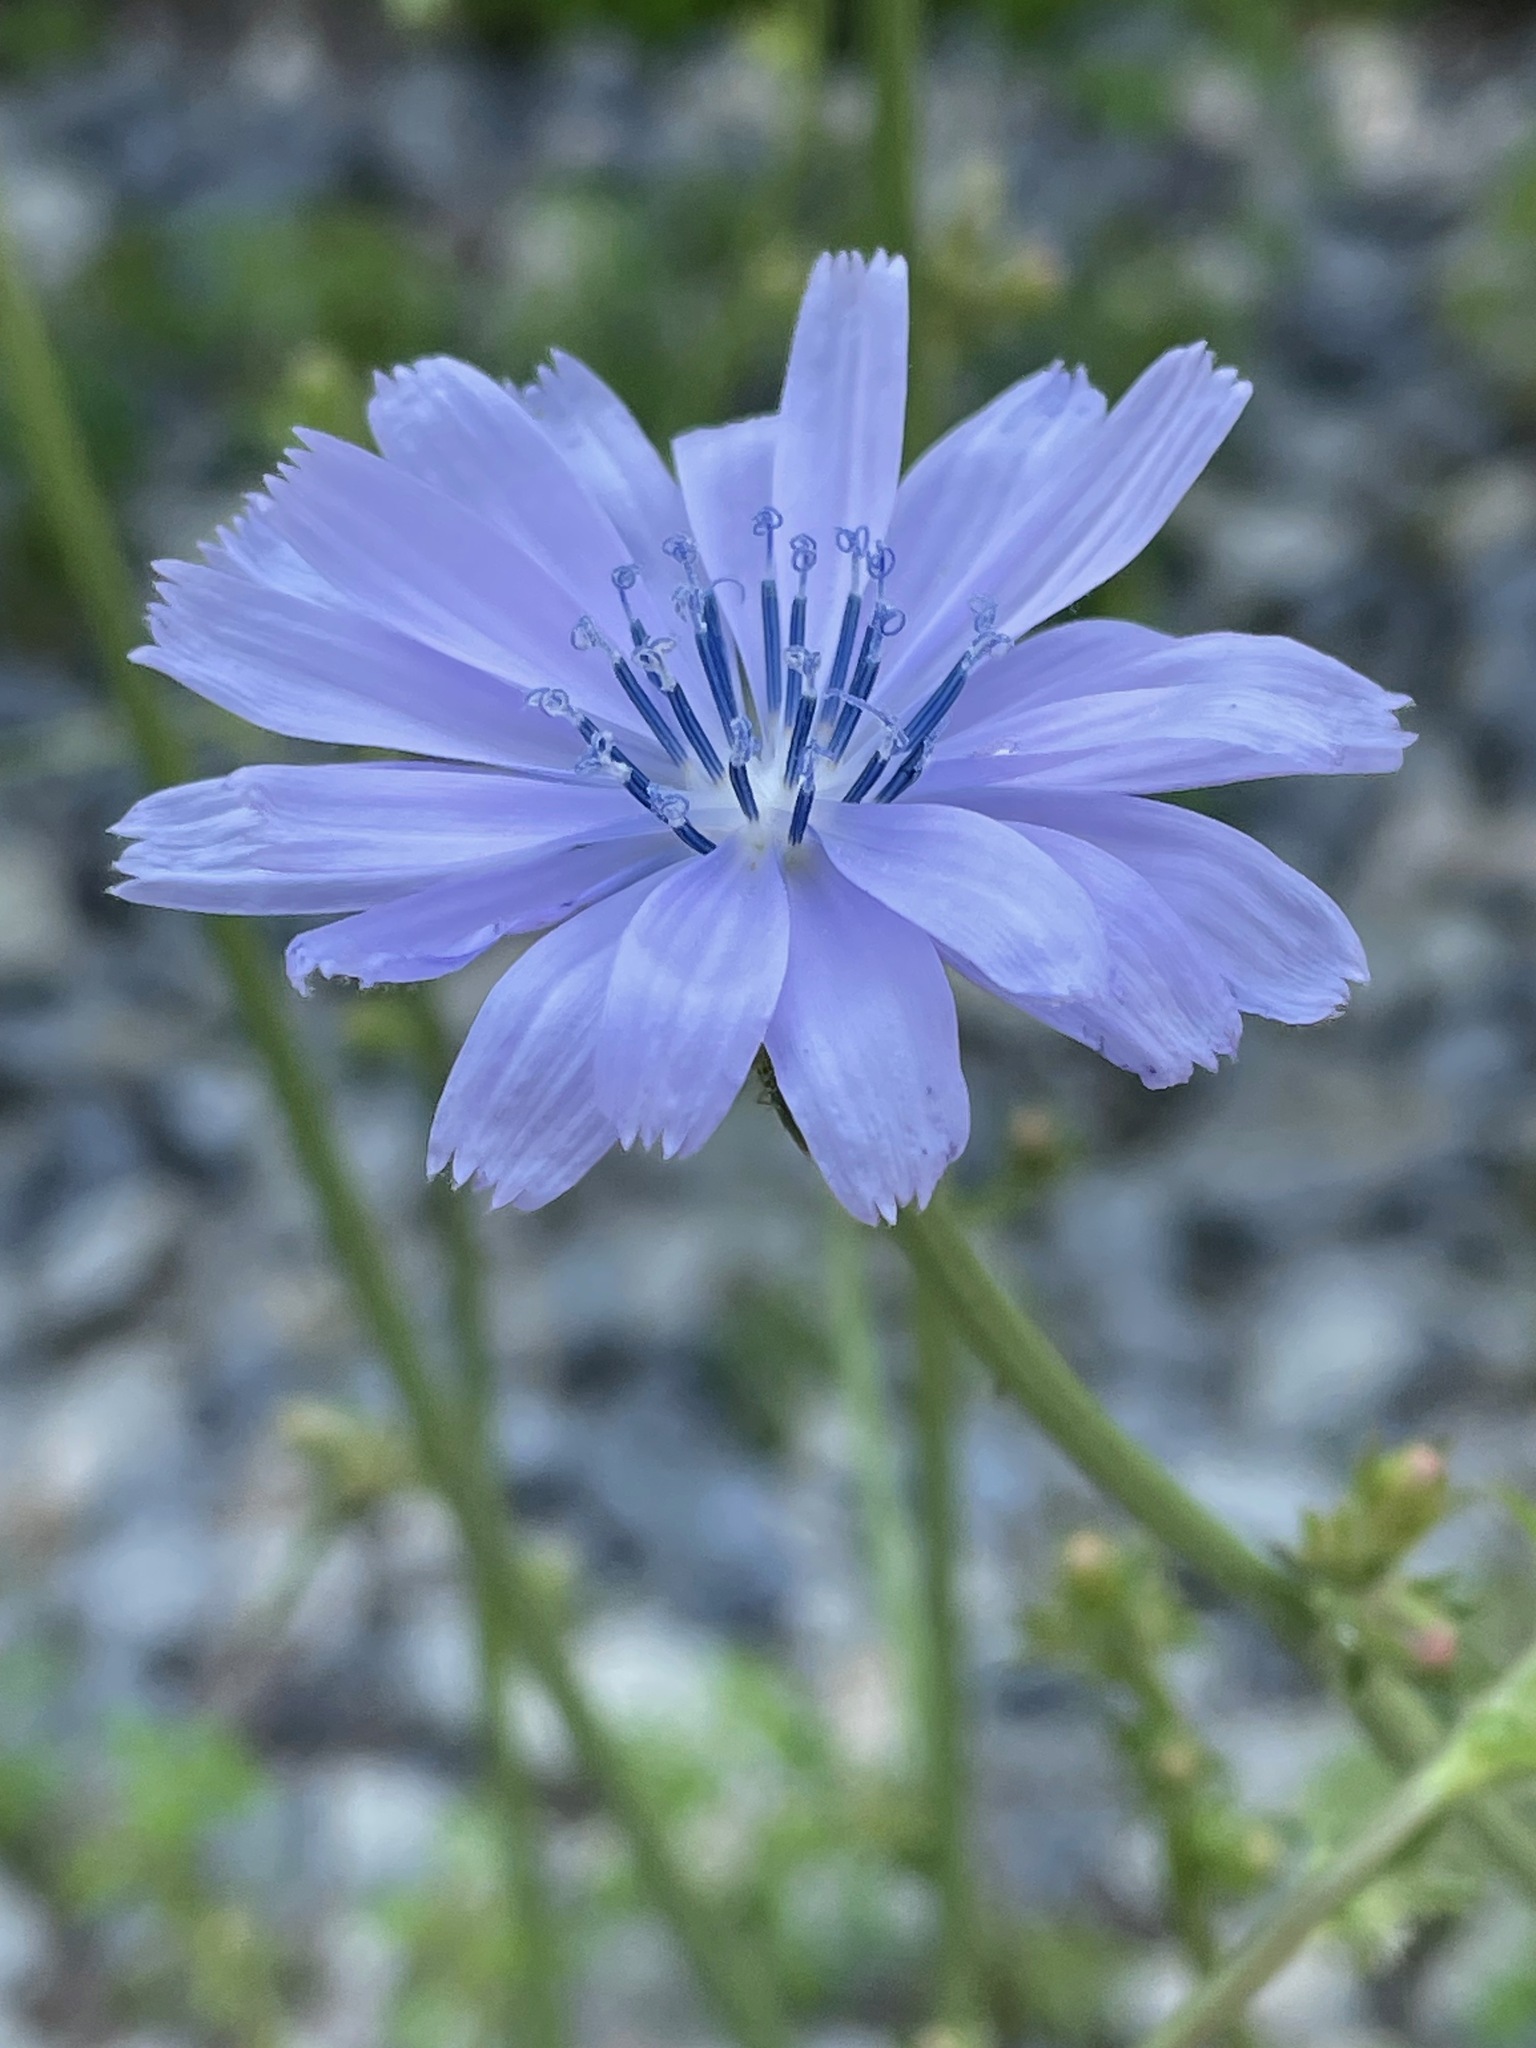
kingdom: Plantae
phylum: Tracheophyta
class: Magnoliopsida
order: Asterales
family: Asteraceae
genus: Cichorium
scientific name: Cichorium intybus
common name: Chicory
